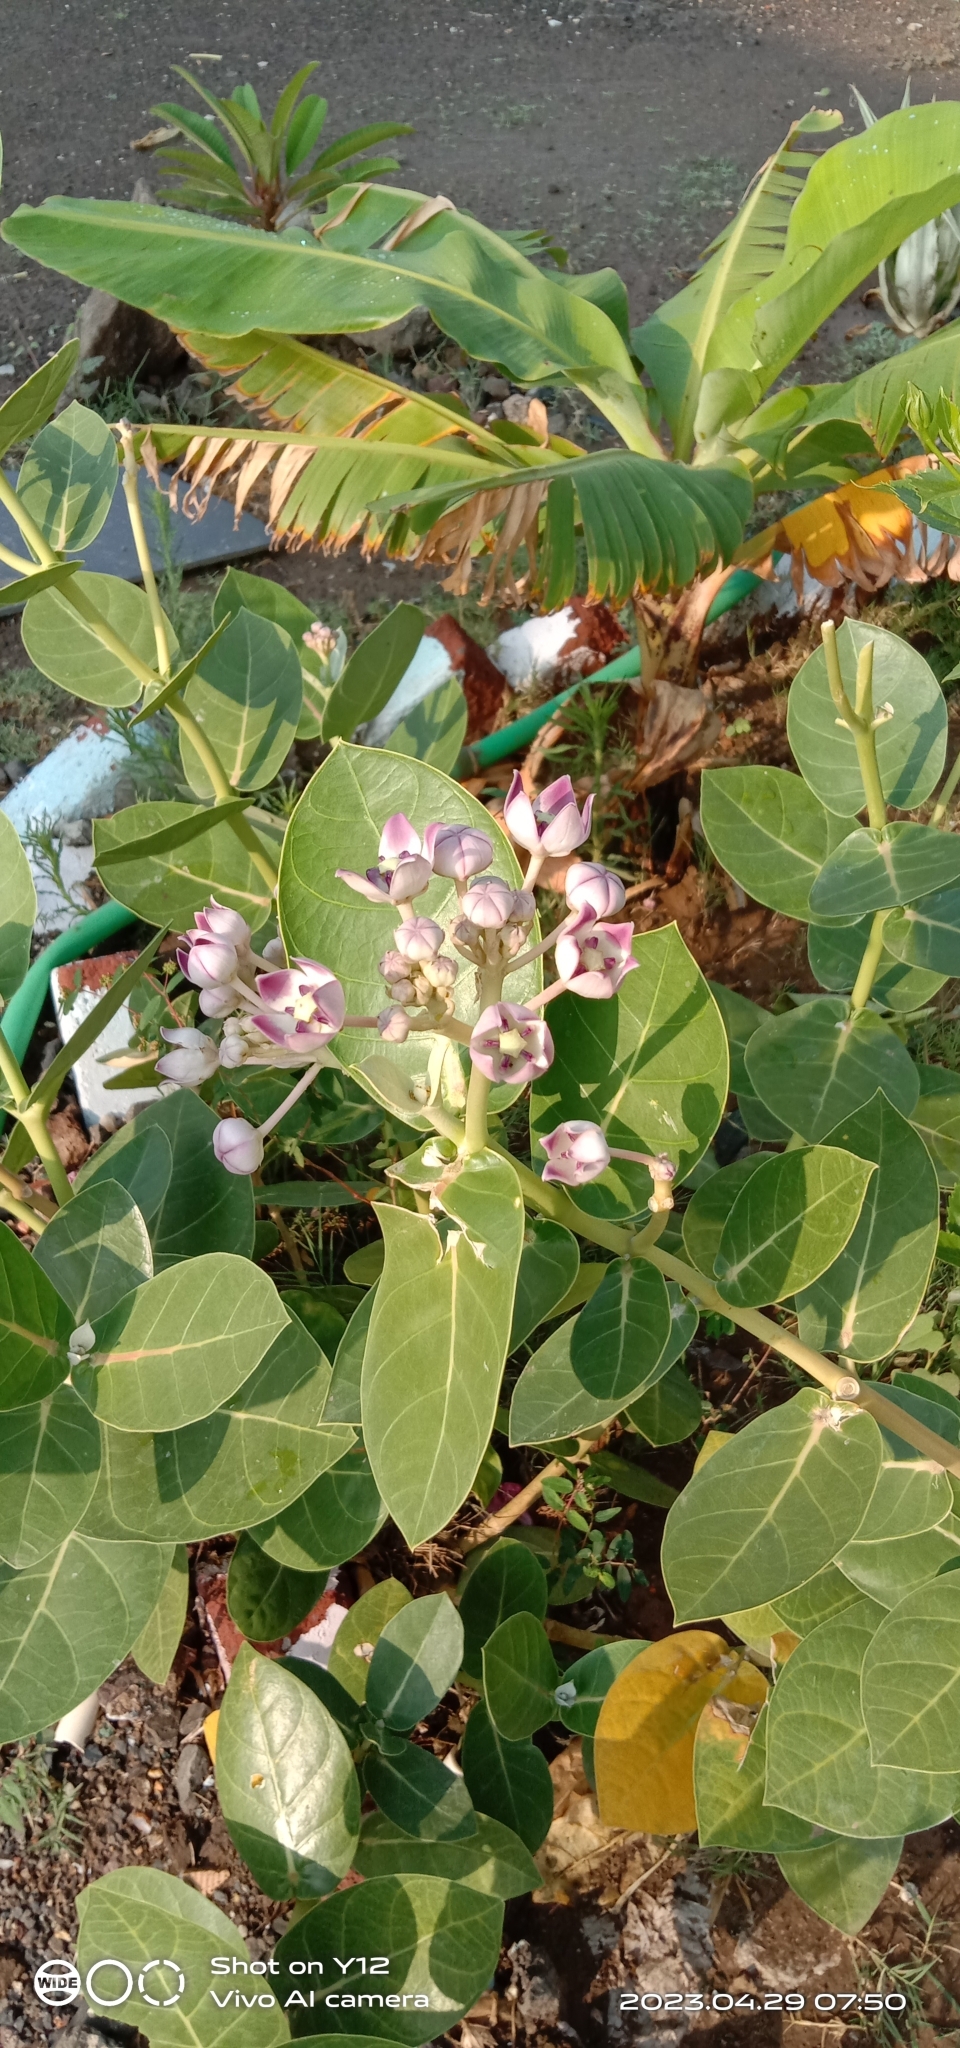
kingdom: Plantae
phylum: Tracheophyta
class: Magnoliopsida
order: Gentianales
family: Apocynaceae
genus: Calotropis
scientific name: Calotropis procera
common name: Roostertree
